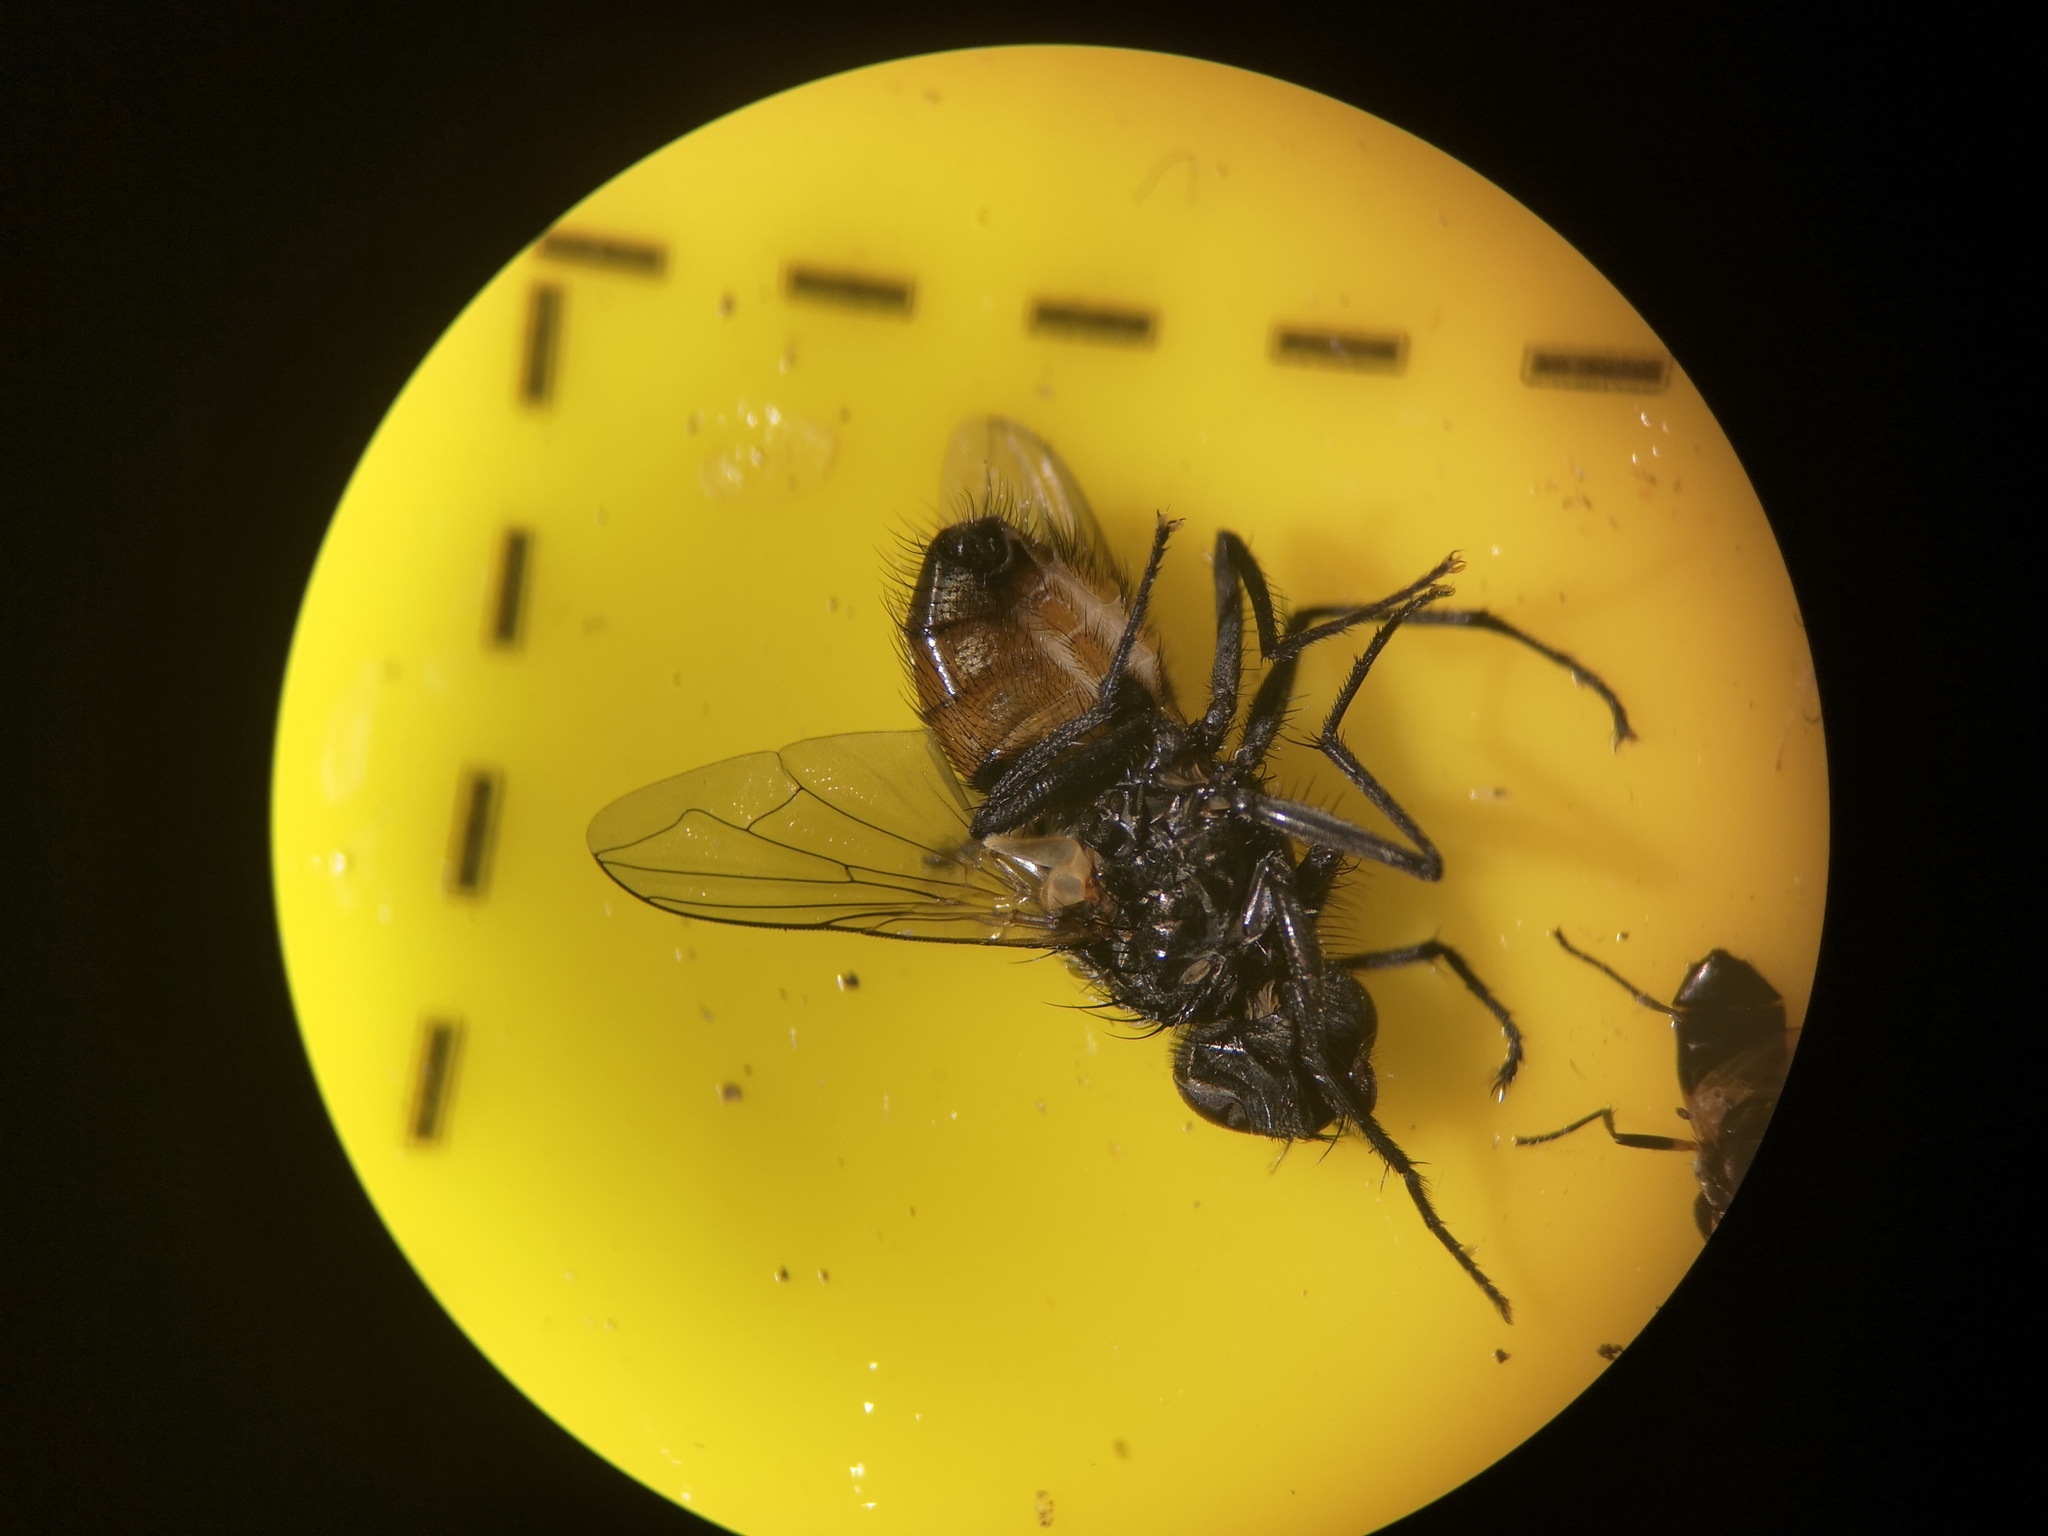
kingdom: Animalia
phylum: Arthropoda
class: Insecta
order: Diptera
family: Muscidae
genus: Musca
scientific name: Musca domestica
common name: House fly
